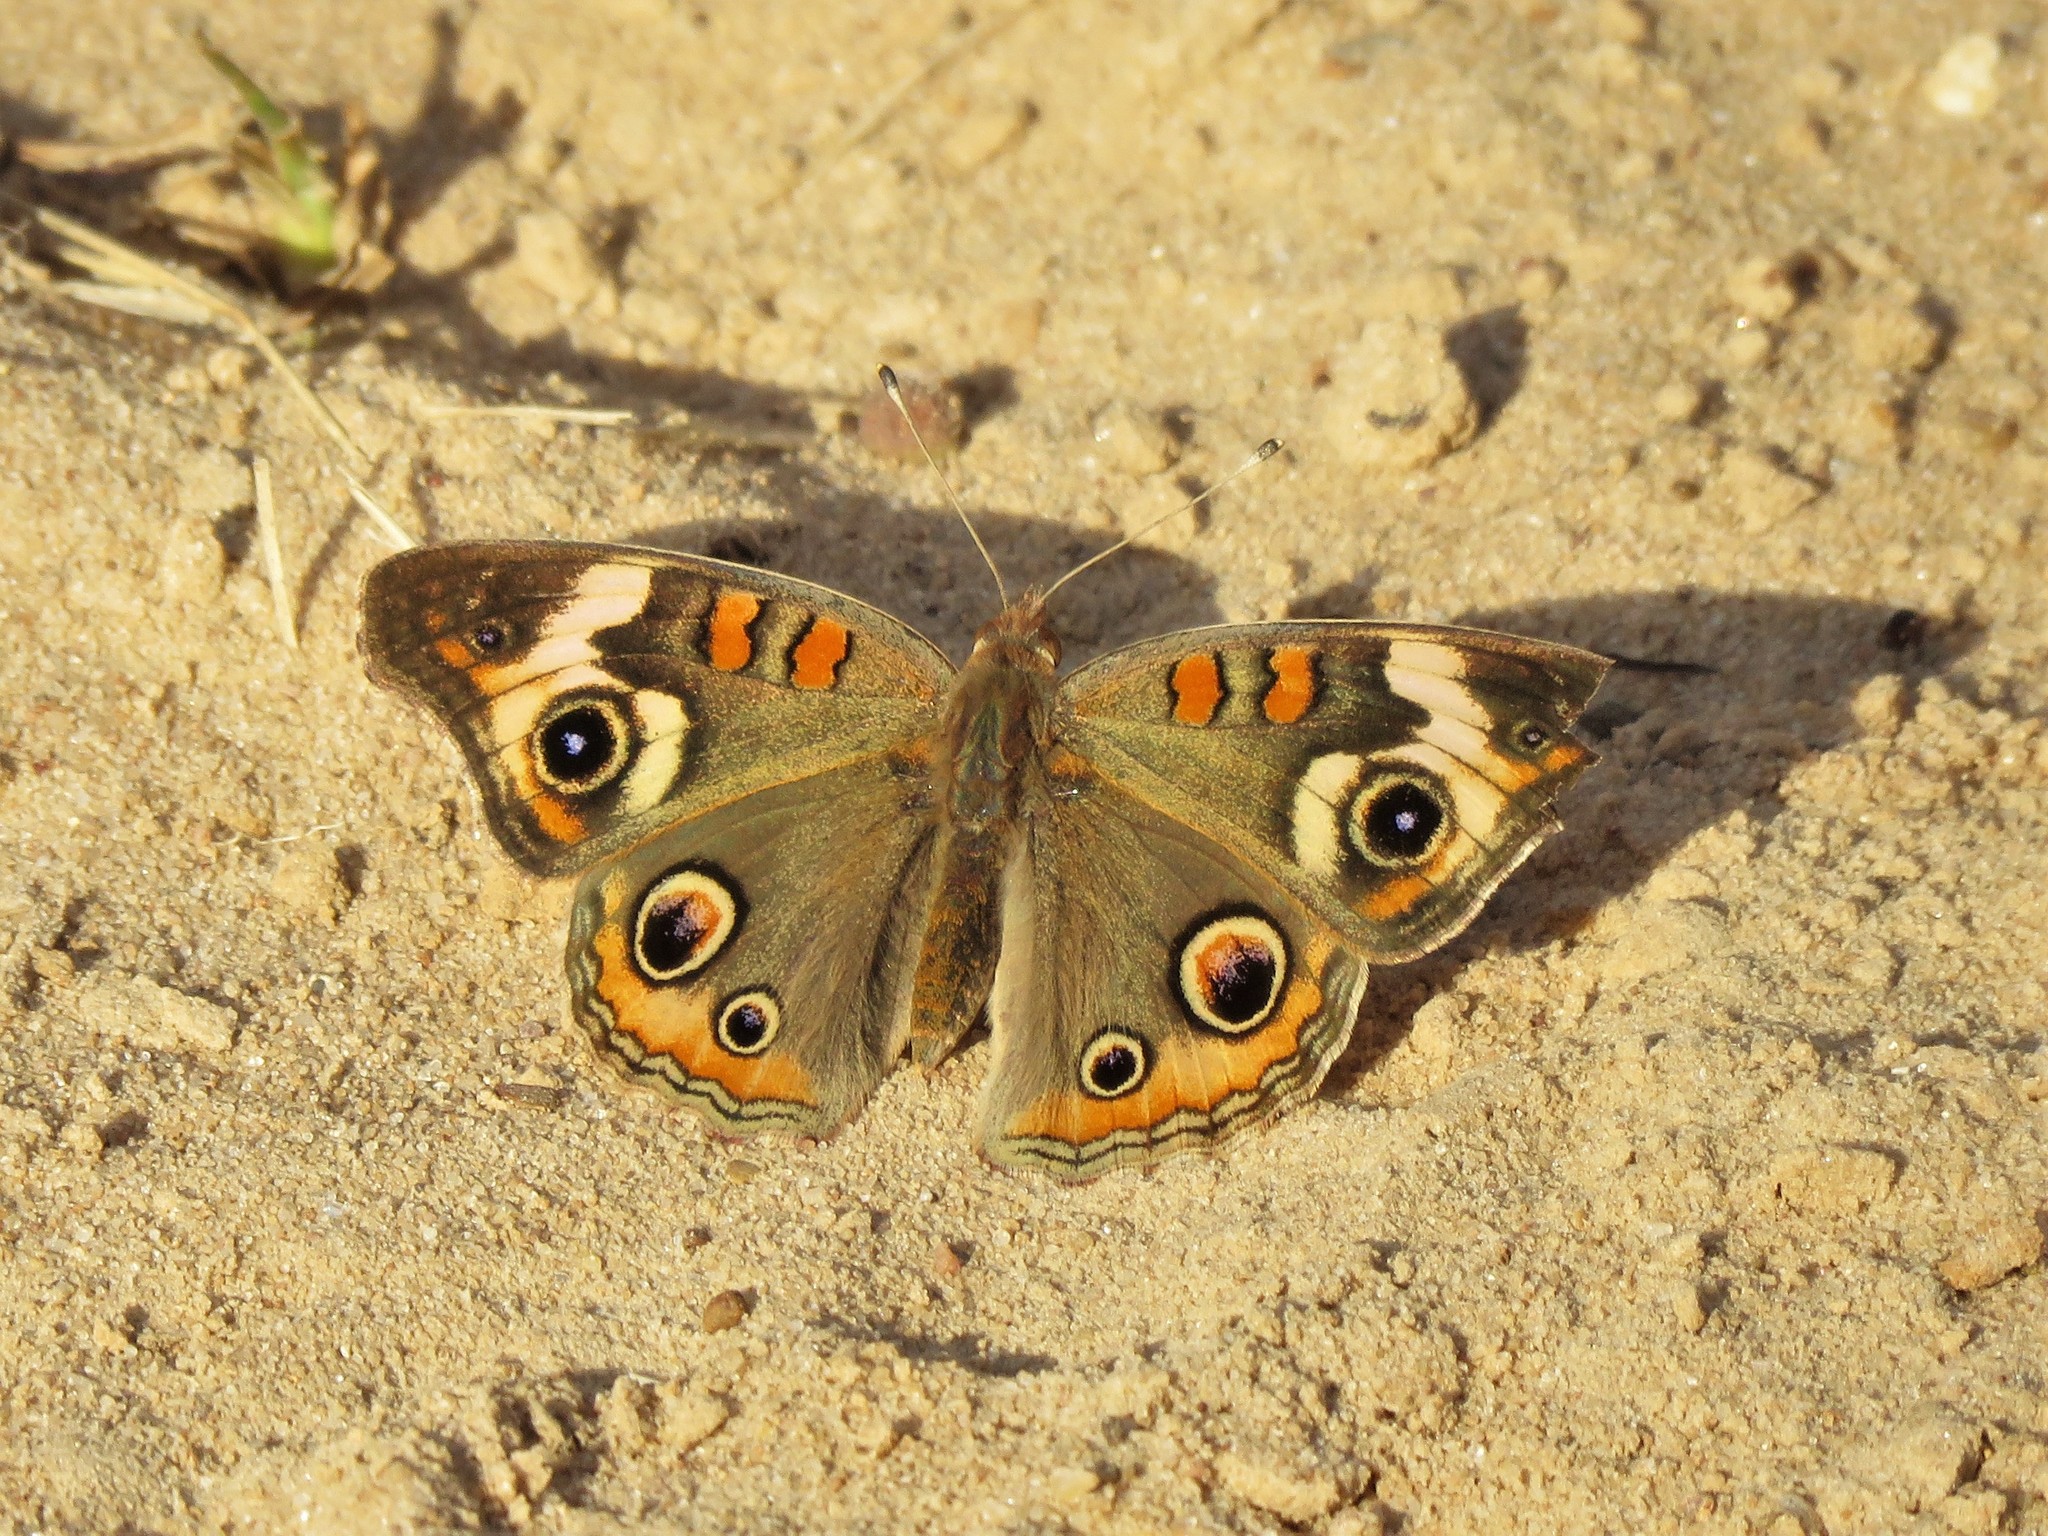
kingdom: Animalia
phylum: Arthropoda
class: Insecta
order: Lepidoptera
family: Nymphalidae
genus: Junonia
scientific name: Junonia coenia
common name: Common buckeye
